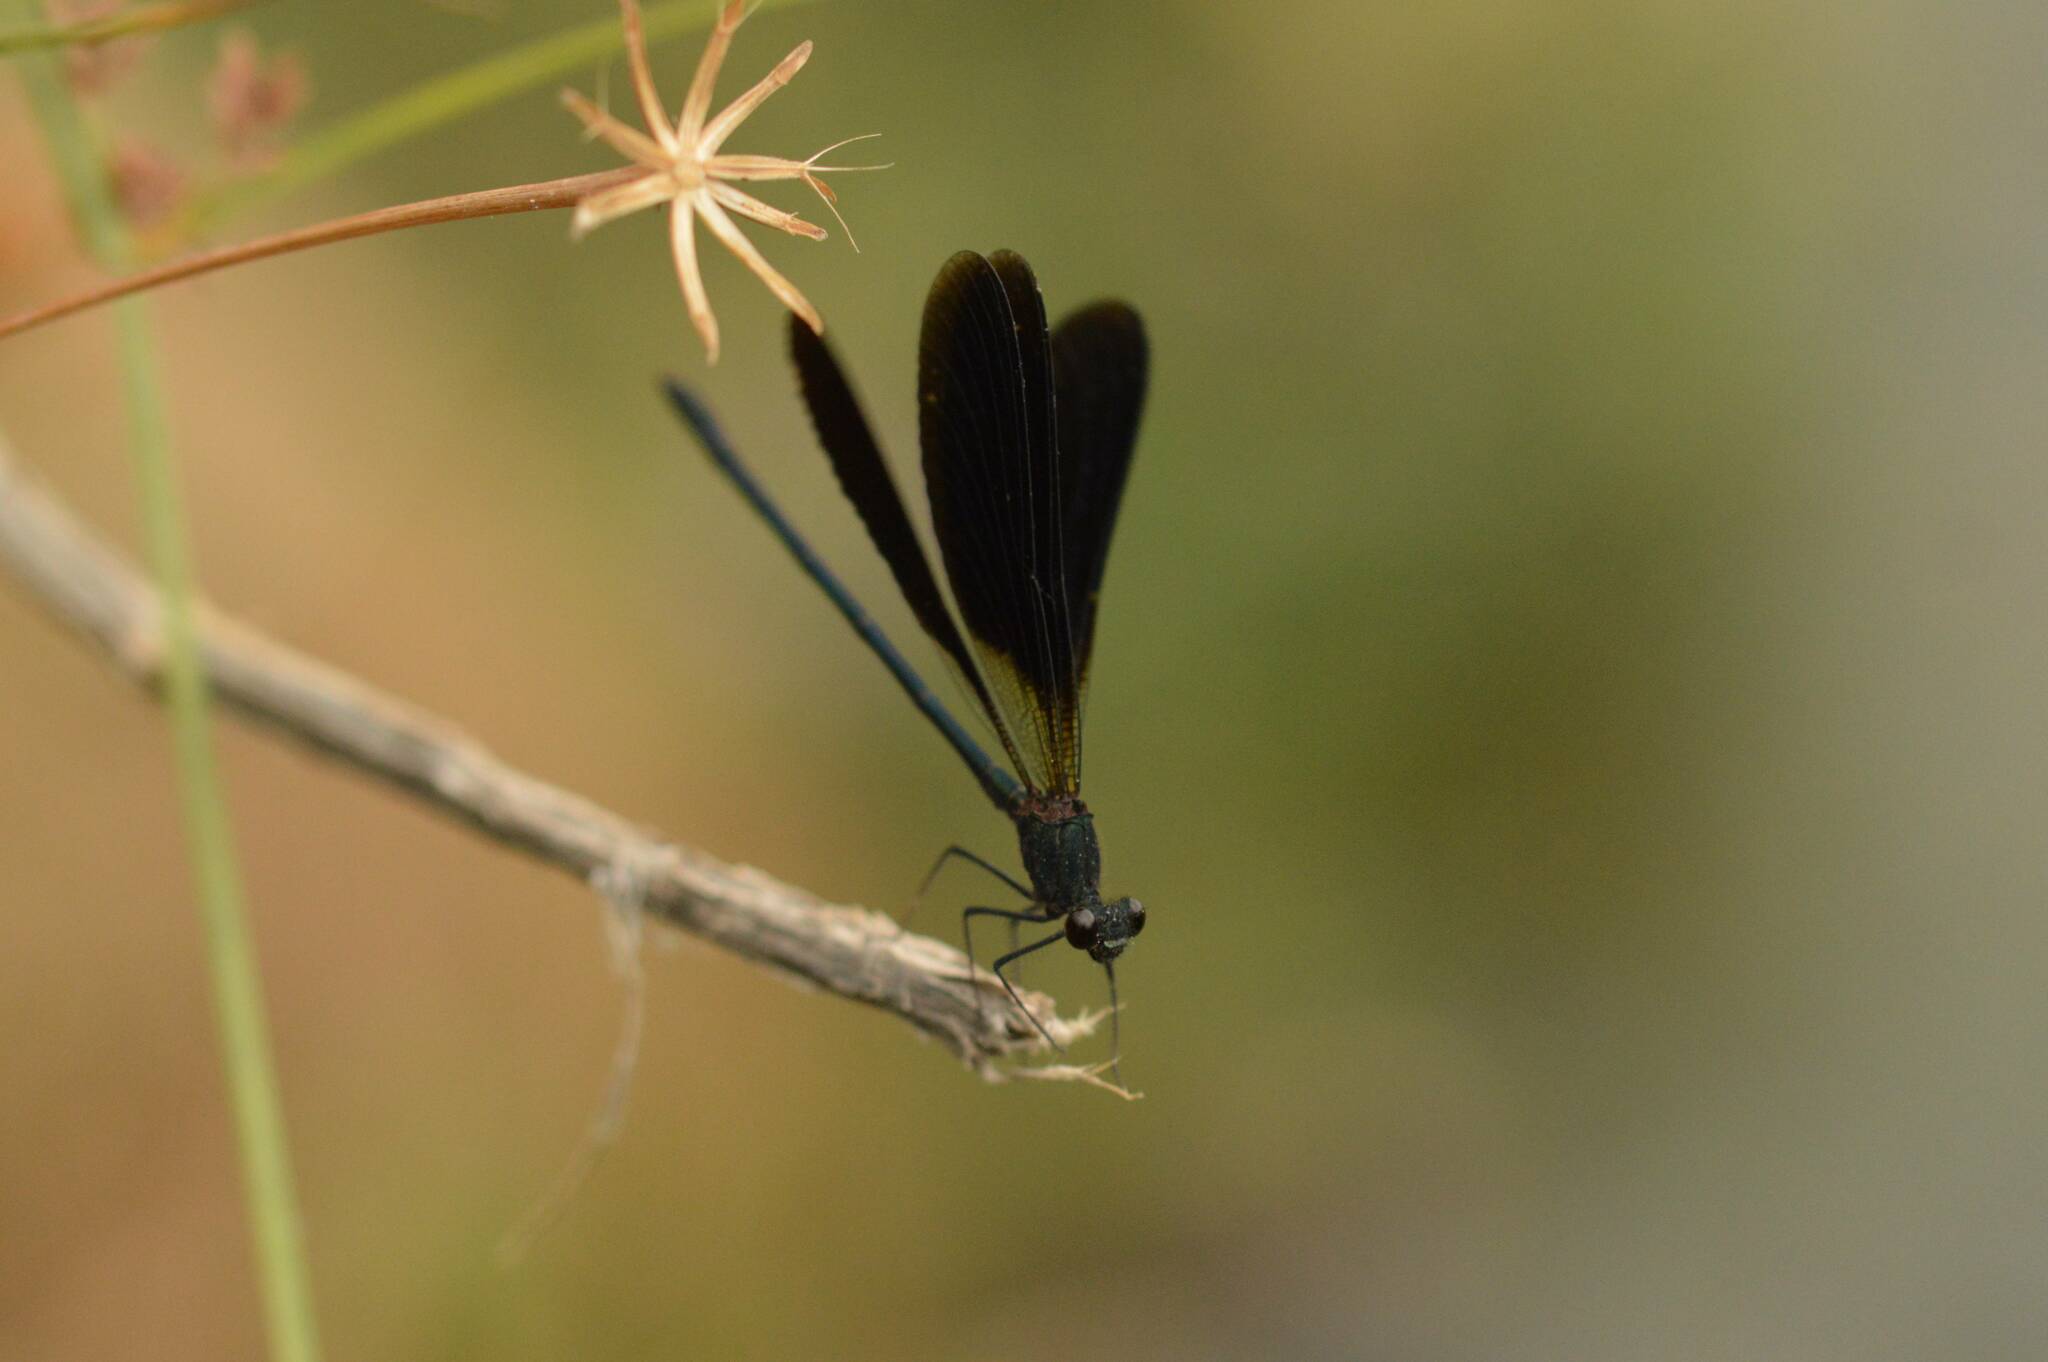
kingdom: Animalia
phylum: Arthropoda
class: Insecta
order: Odonata
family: Calopterygidae
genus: Calopteryx
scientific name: Calopteryx haemorrhoidalis
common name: Copper demoiselle
